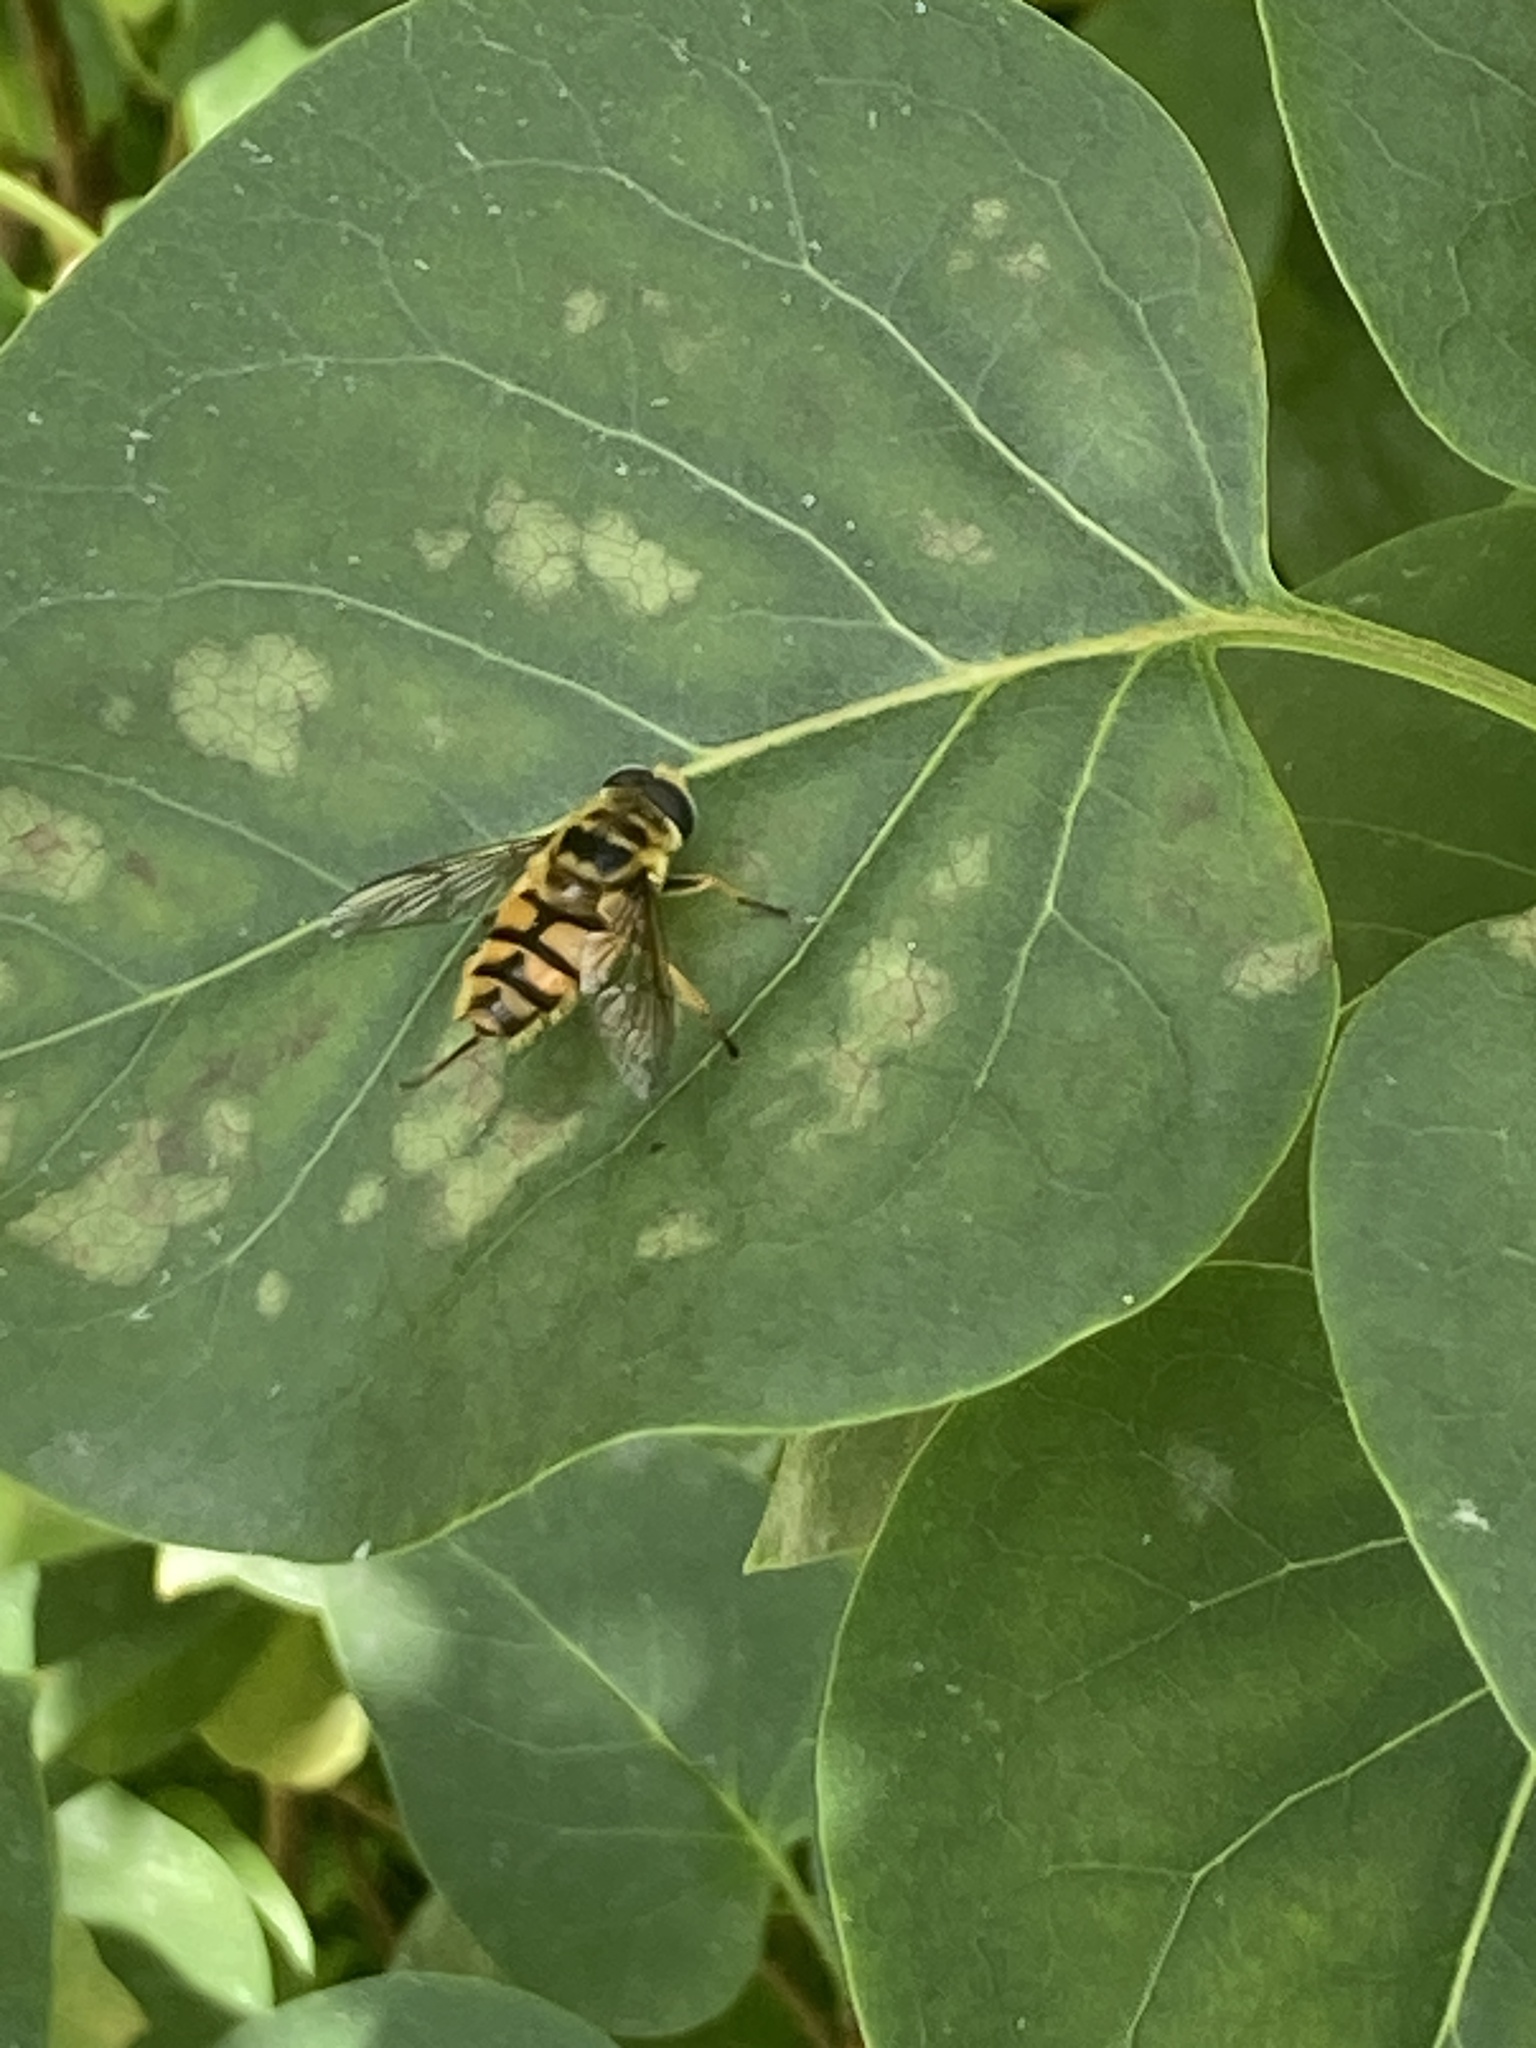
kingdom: Animalia
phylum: Arthropoda
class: Insecta
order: Diptera
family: Syrphidae
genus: Myathropa
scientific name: Myathropa florea
